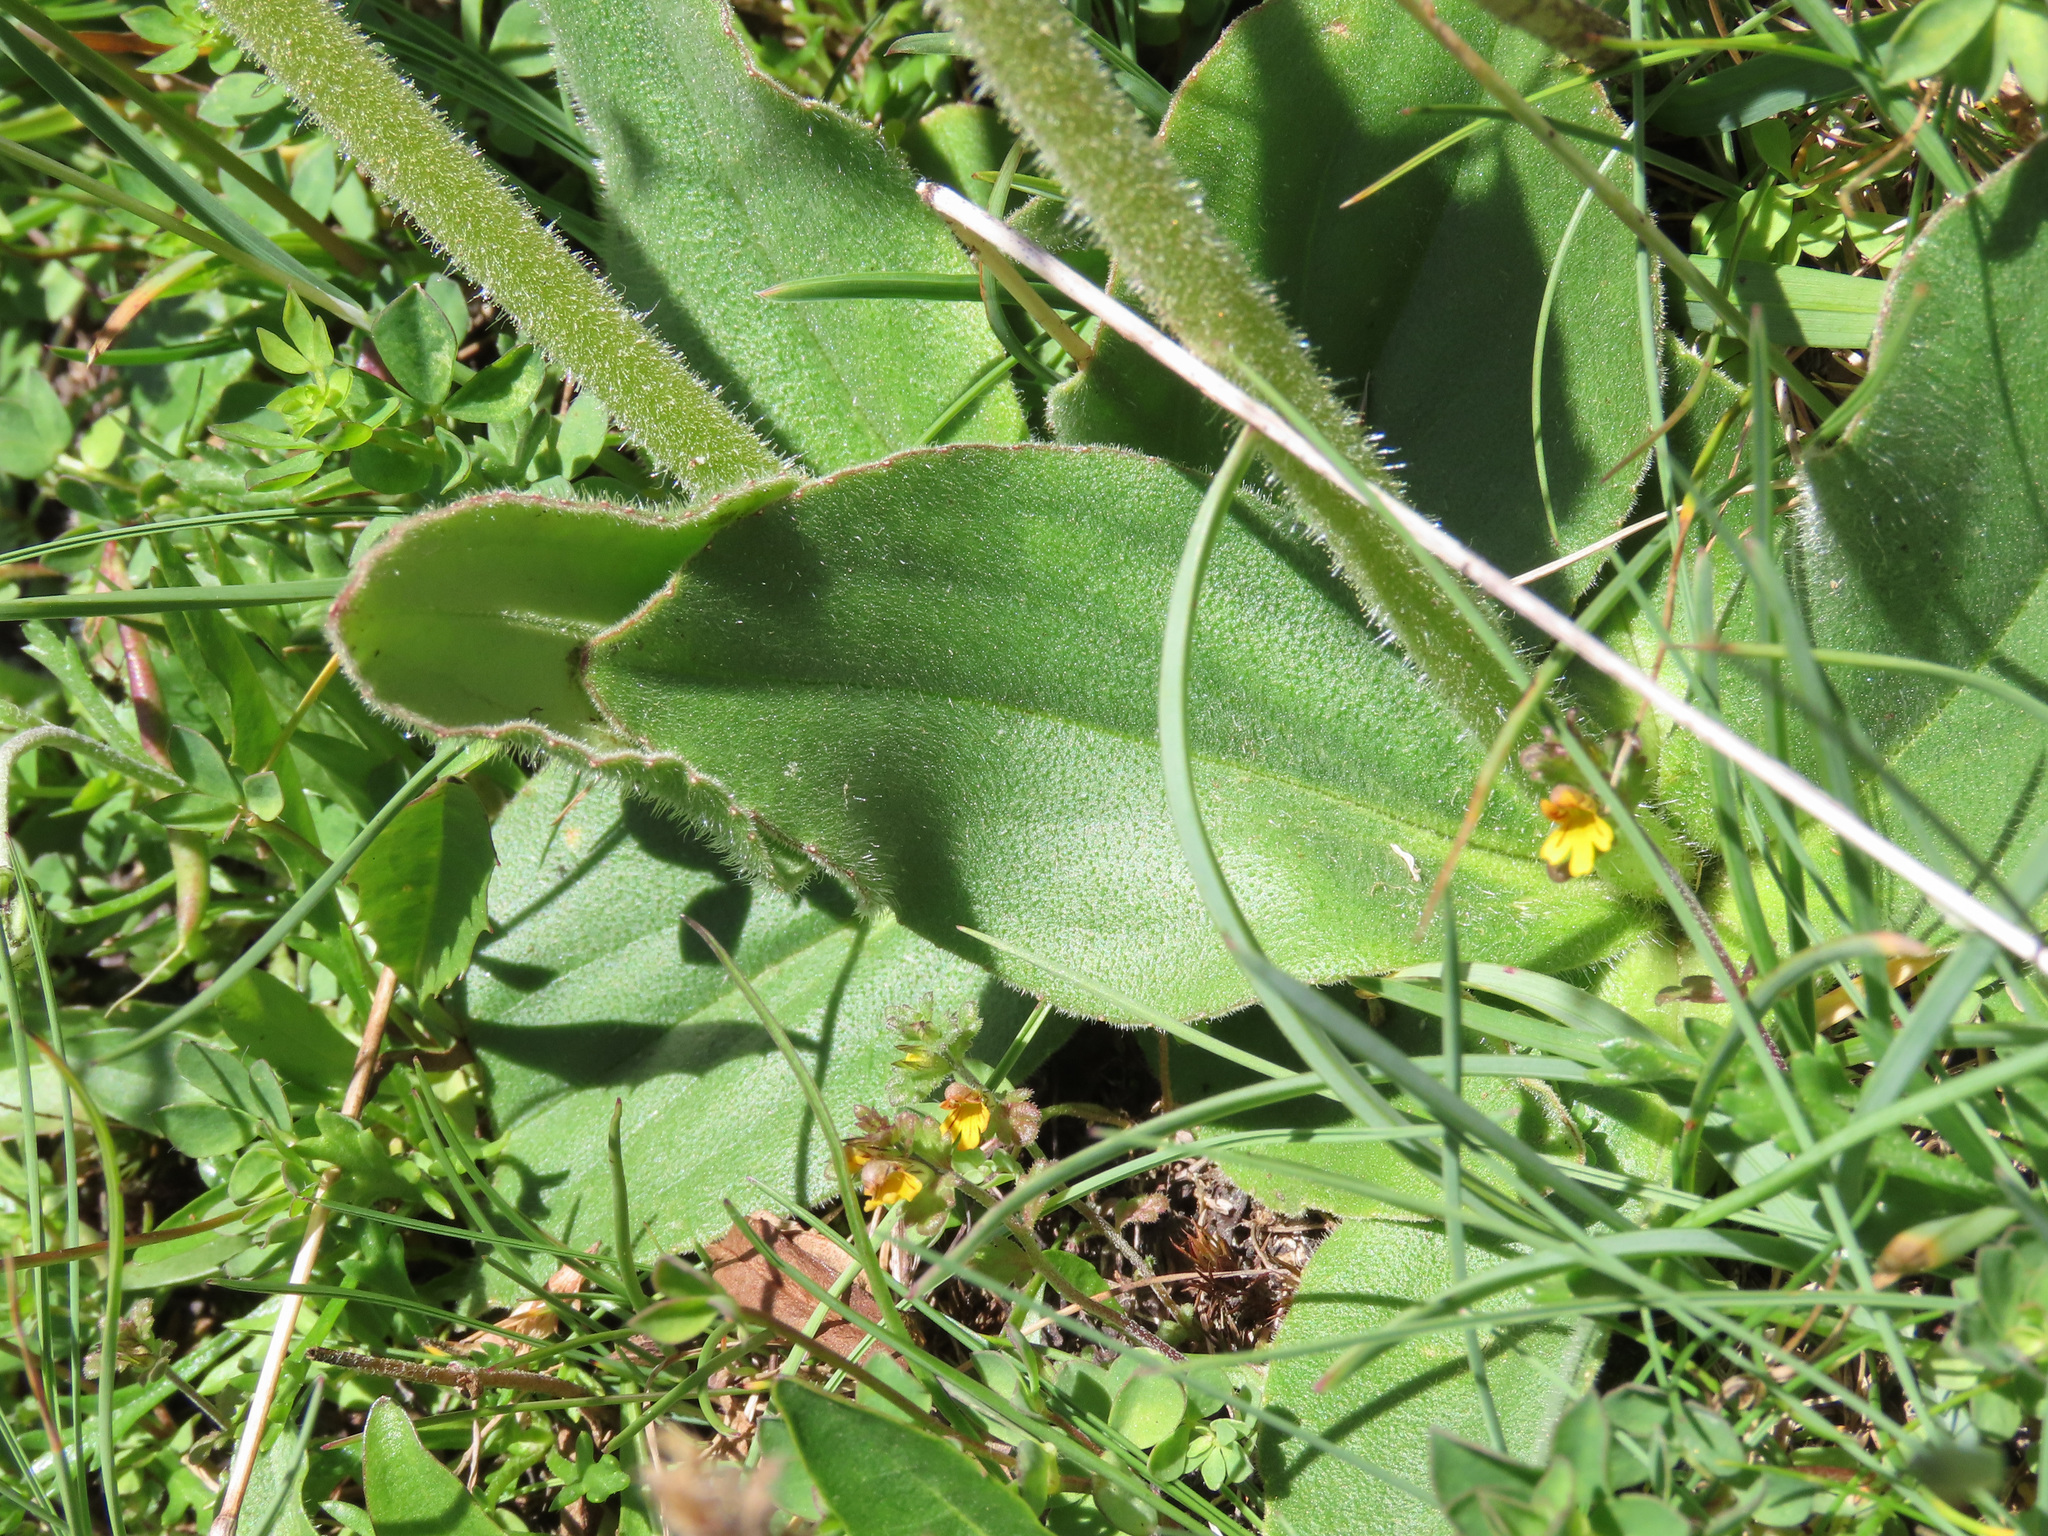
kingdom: Plantae
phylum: Tracheophyta
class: Magnoliopsida
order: Asterales
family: Asteraceae
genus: Arnica
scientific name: Arnica montana
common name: Leopard's bane
